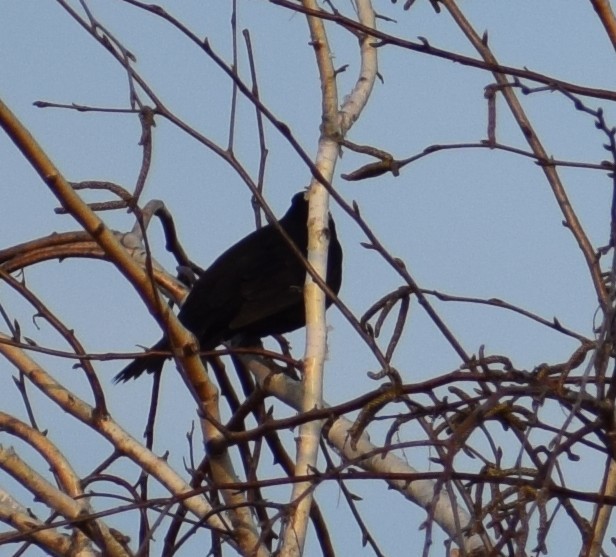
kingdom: Animalia
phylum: Chordata
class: Aves
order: Passeriformes
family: Turdidae
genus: Turdus
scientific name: Turdus merula
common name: Common blackbird
